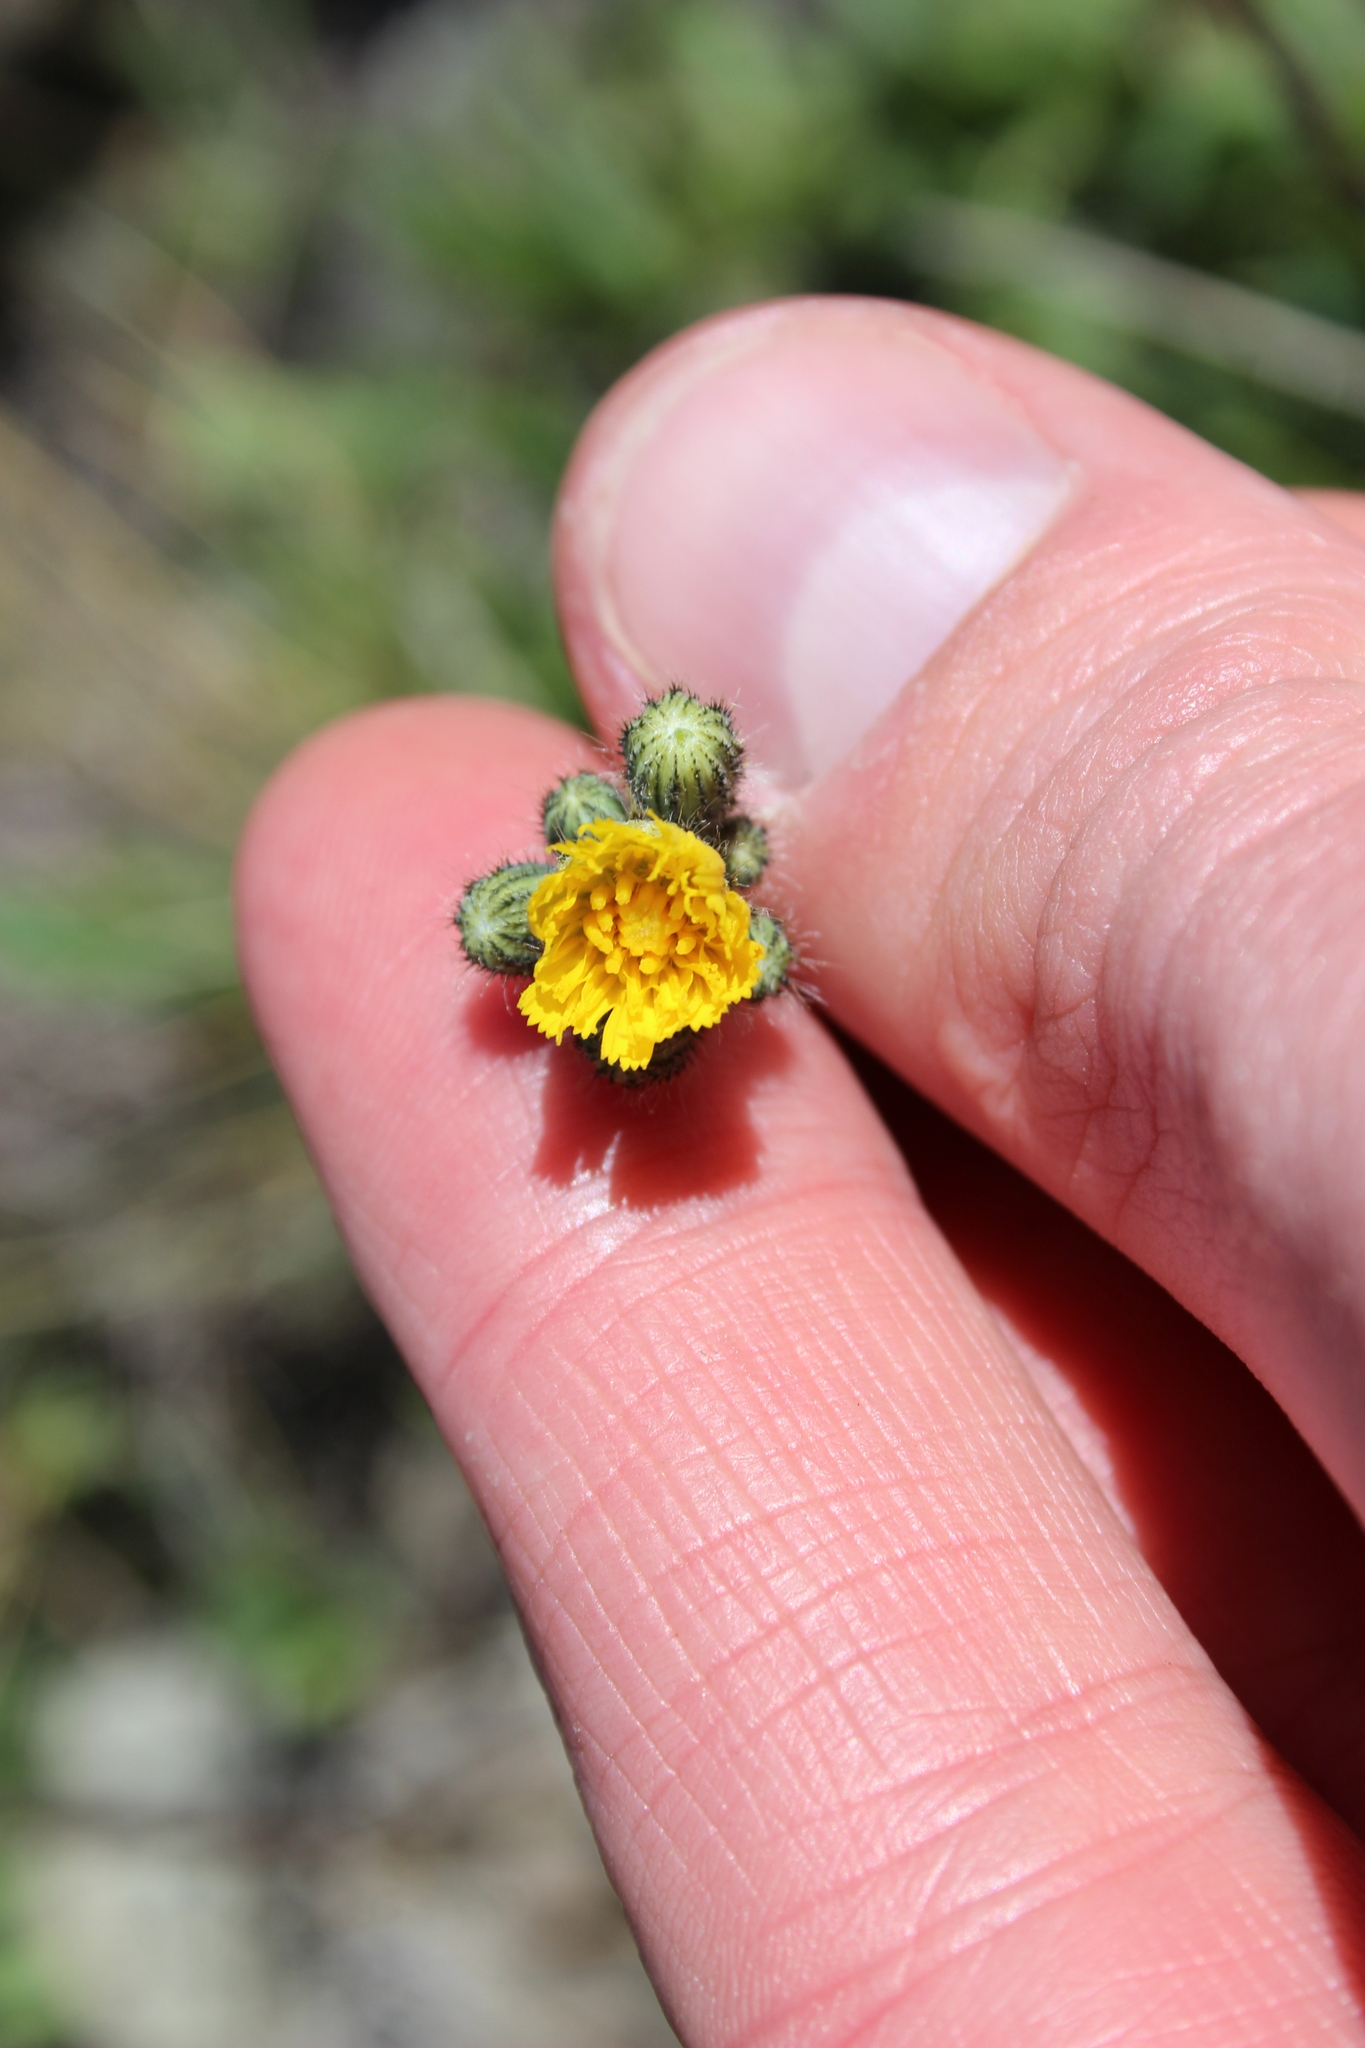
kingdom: Plantae
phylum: Tracheophyta
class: Magnoliopsida
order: Asterales
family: Asteraceae
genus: Pilosella
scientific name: Pilosella piloselloides
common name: Glaucous king-devil
